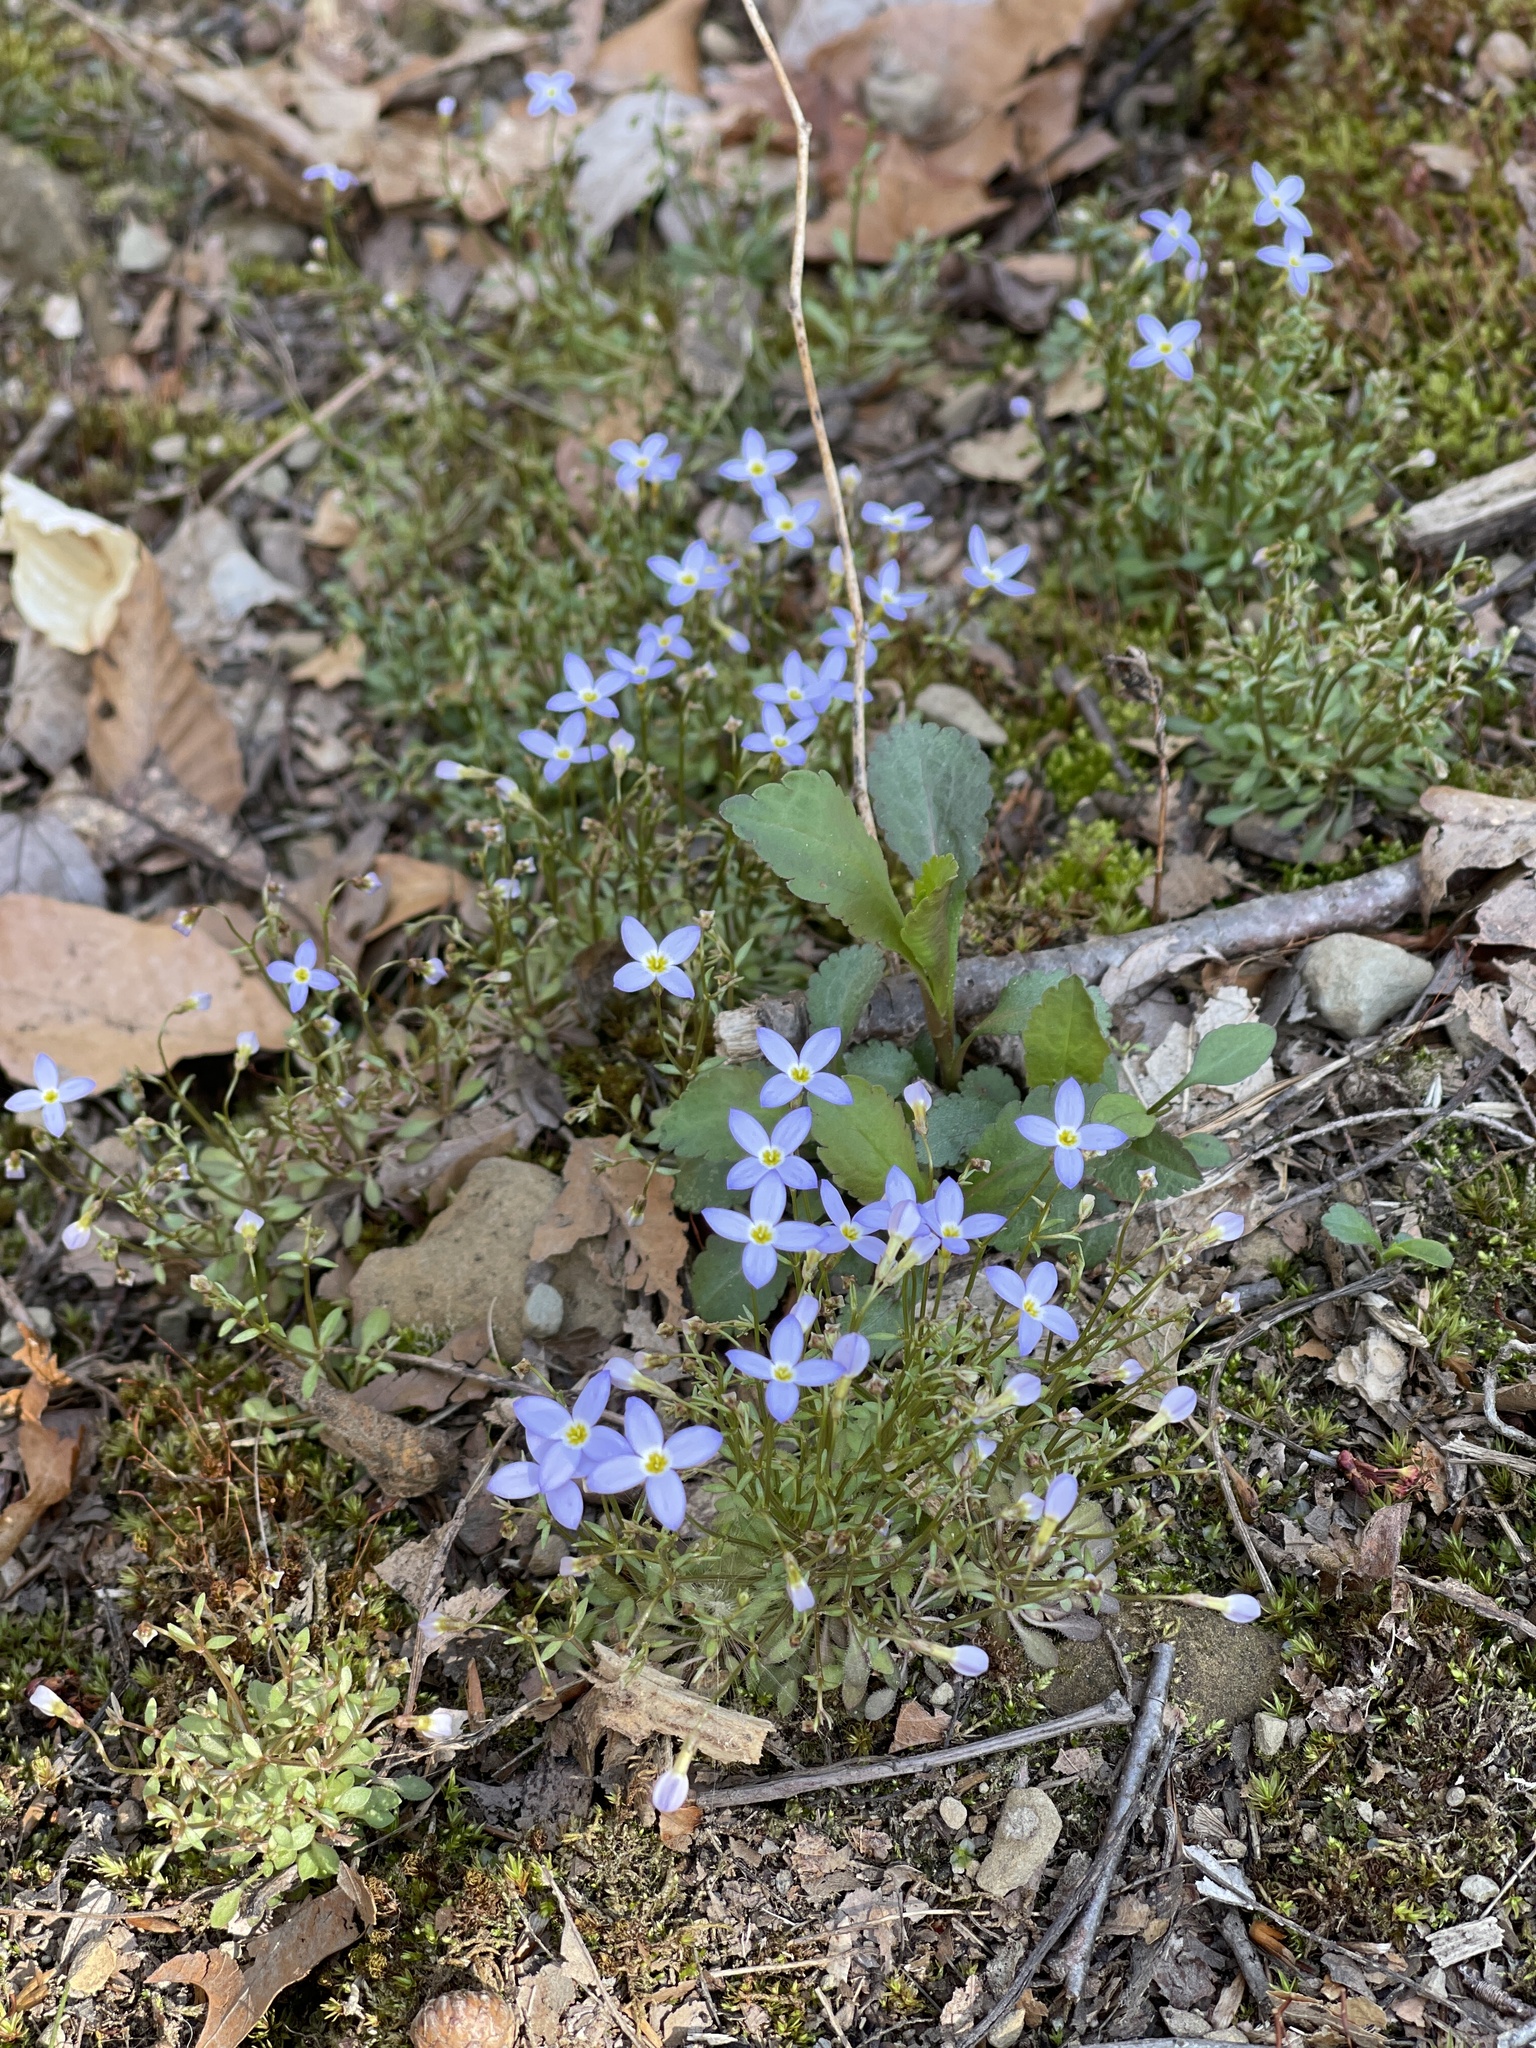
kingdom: Plantae
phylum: Tracheophyta
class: Magnoliopsida
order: Gentianales
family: Rubiaceae
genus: Houstonia
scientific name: Houstonia caerulea
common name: Bluets
